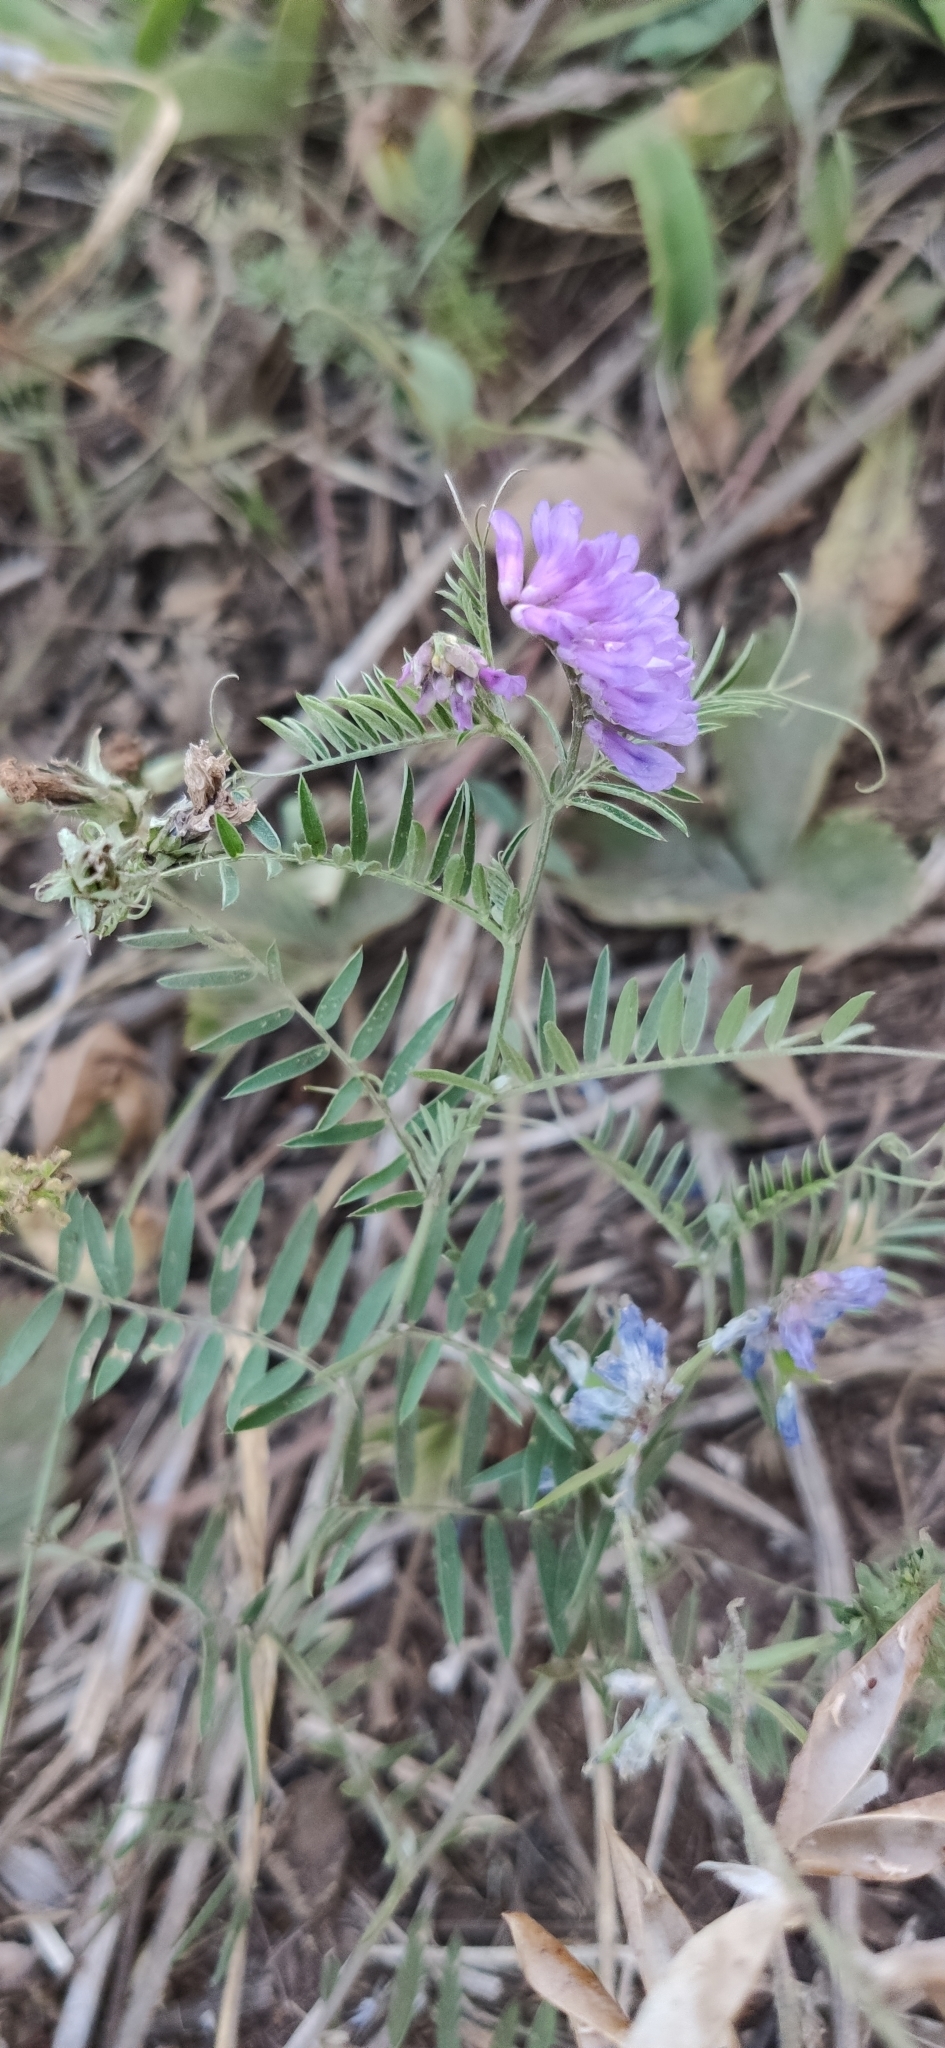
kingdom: Plantae
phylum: Tracheophyta
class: Magnoliopsida
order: Fabales
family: Fabaceae
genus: Vicia
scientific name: Vicia cracca
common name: Bird vetch
